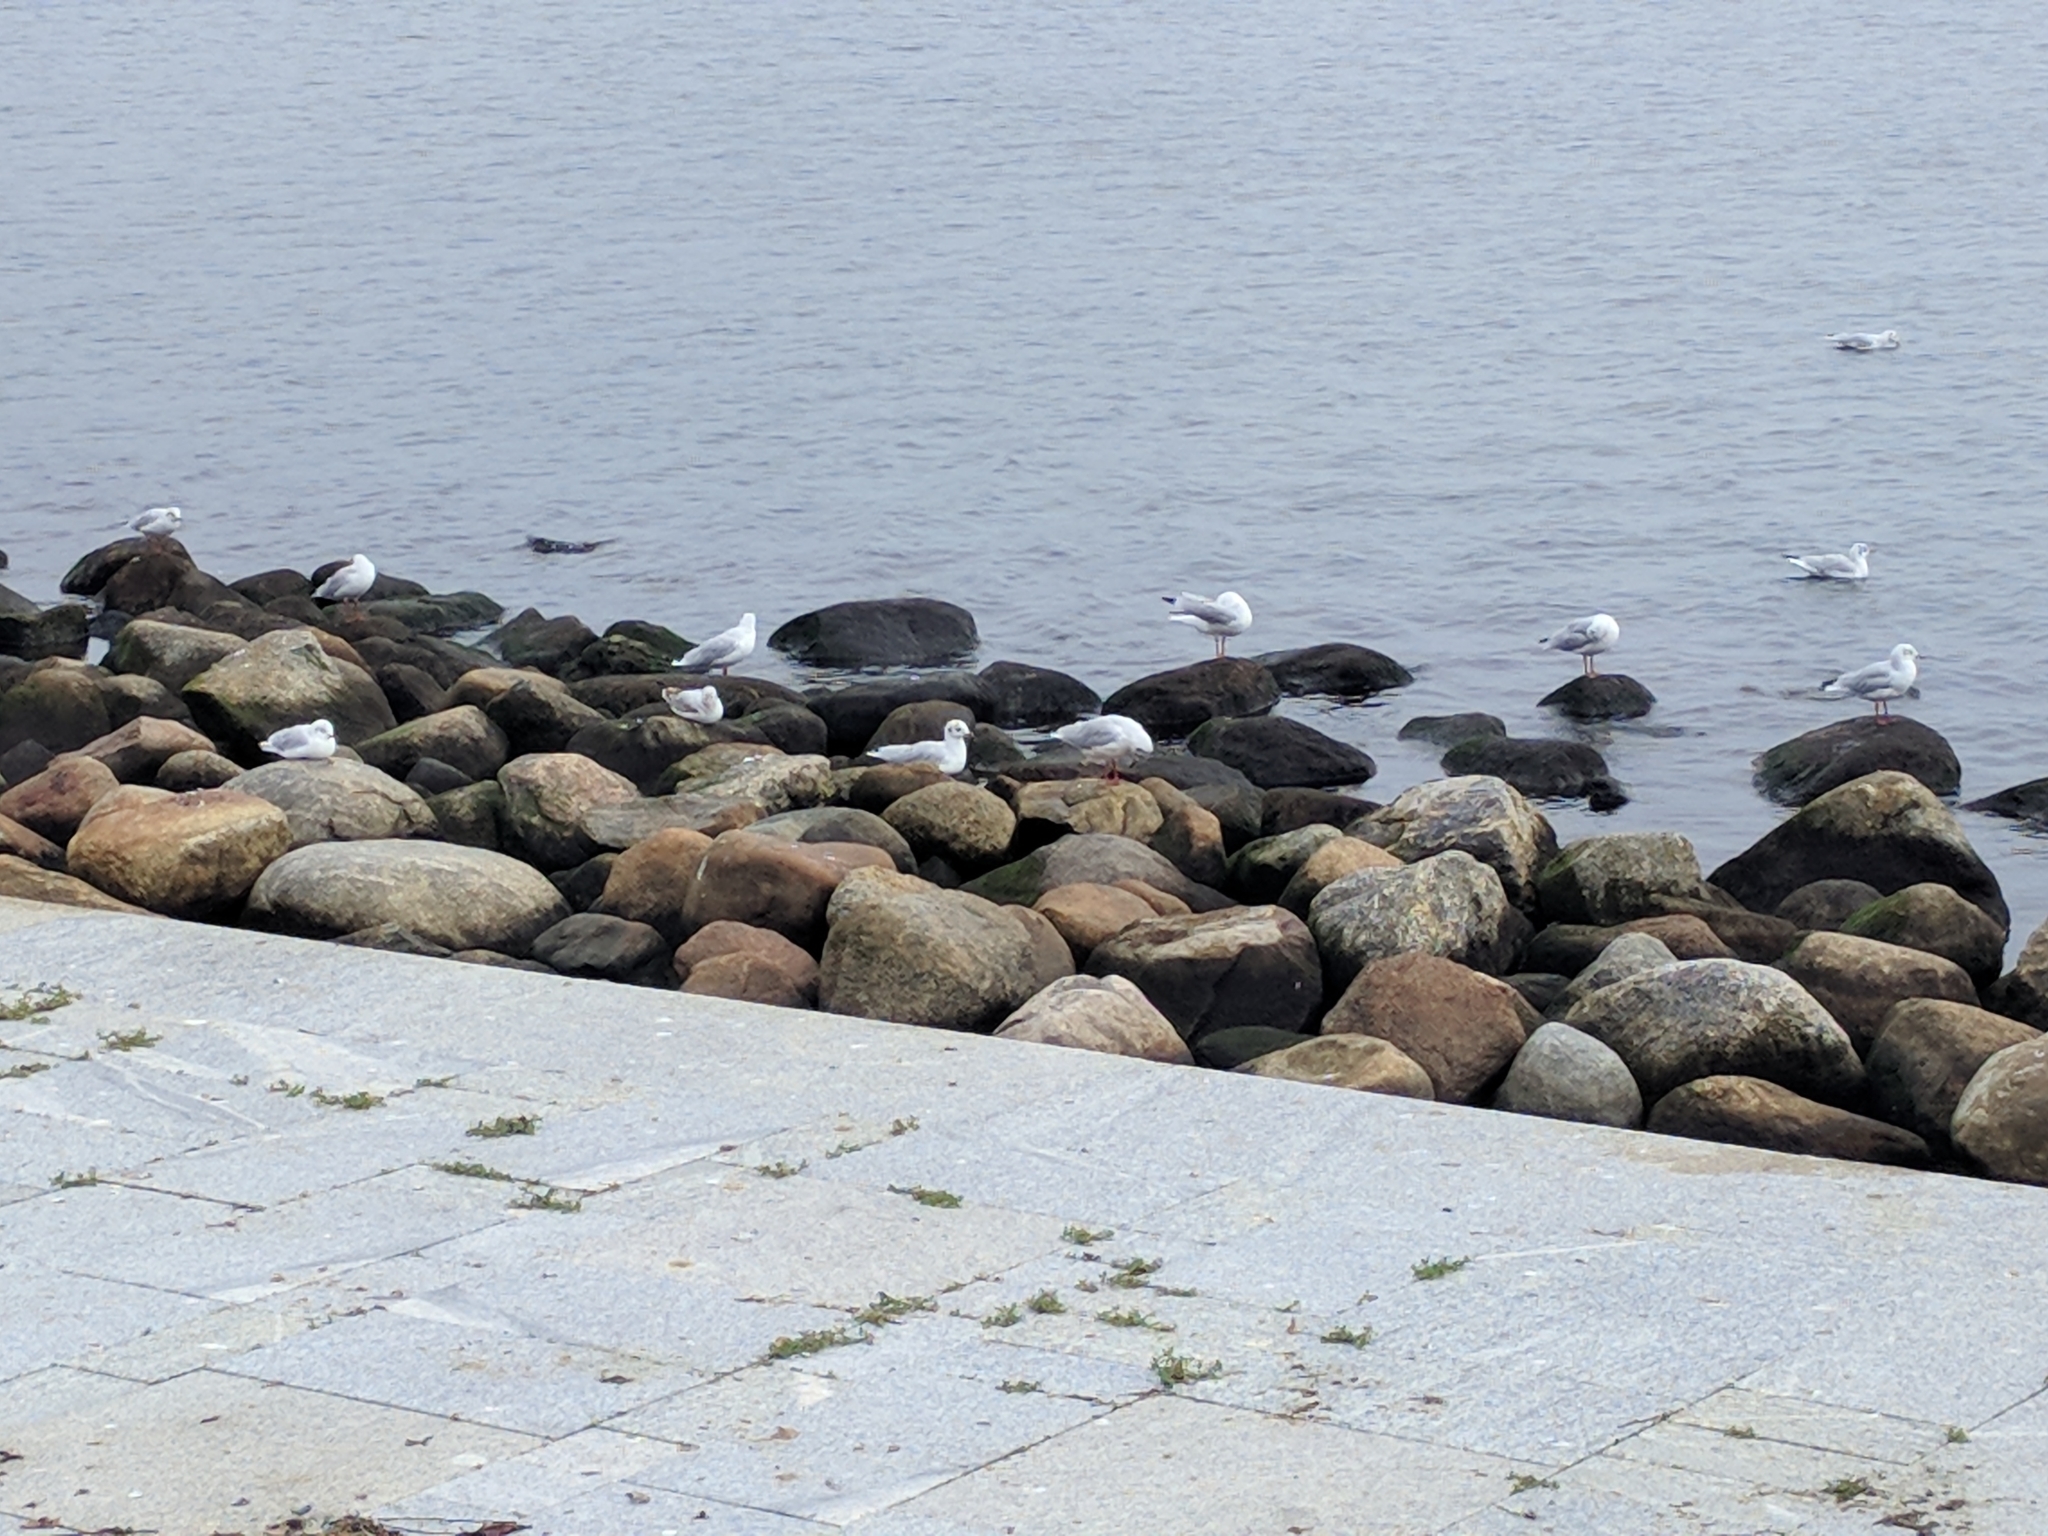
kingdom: Animalia
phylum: Chordata
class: Aves
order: Charadriiformes
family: Laridae
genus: Chroicocephalus
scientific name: Chroicocephalus ridibundus
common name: Black-headed gull
